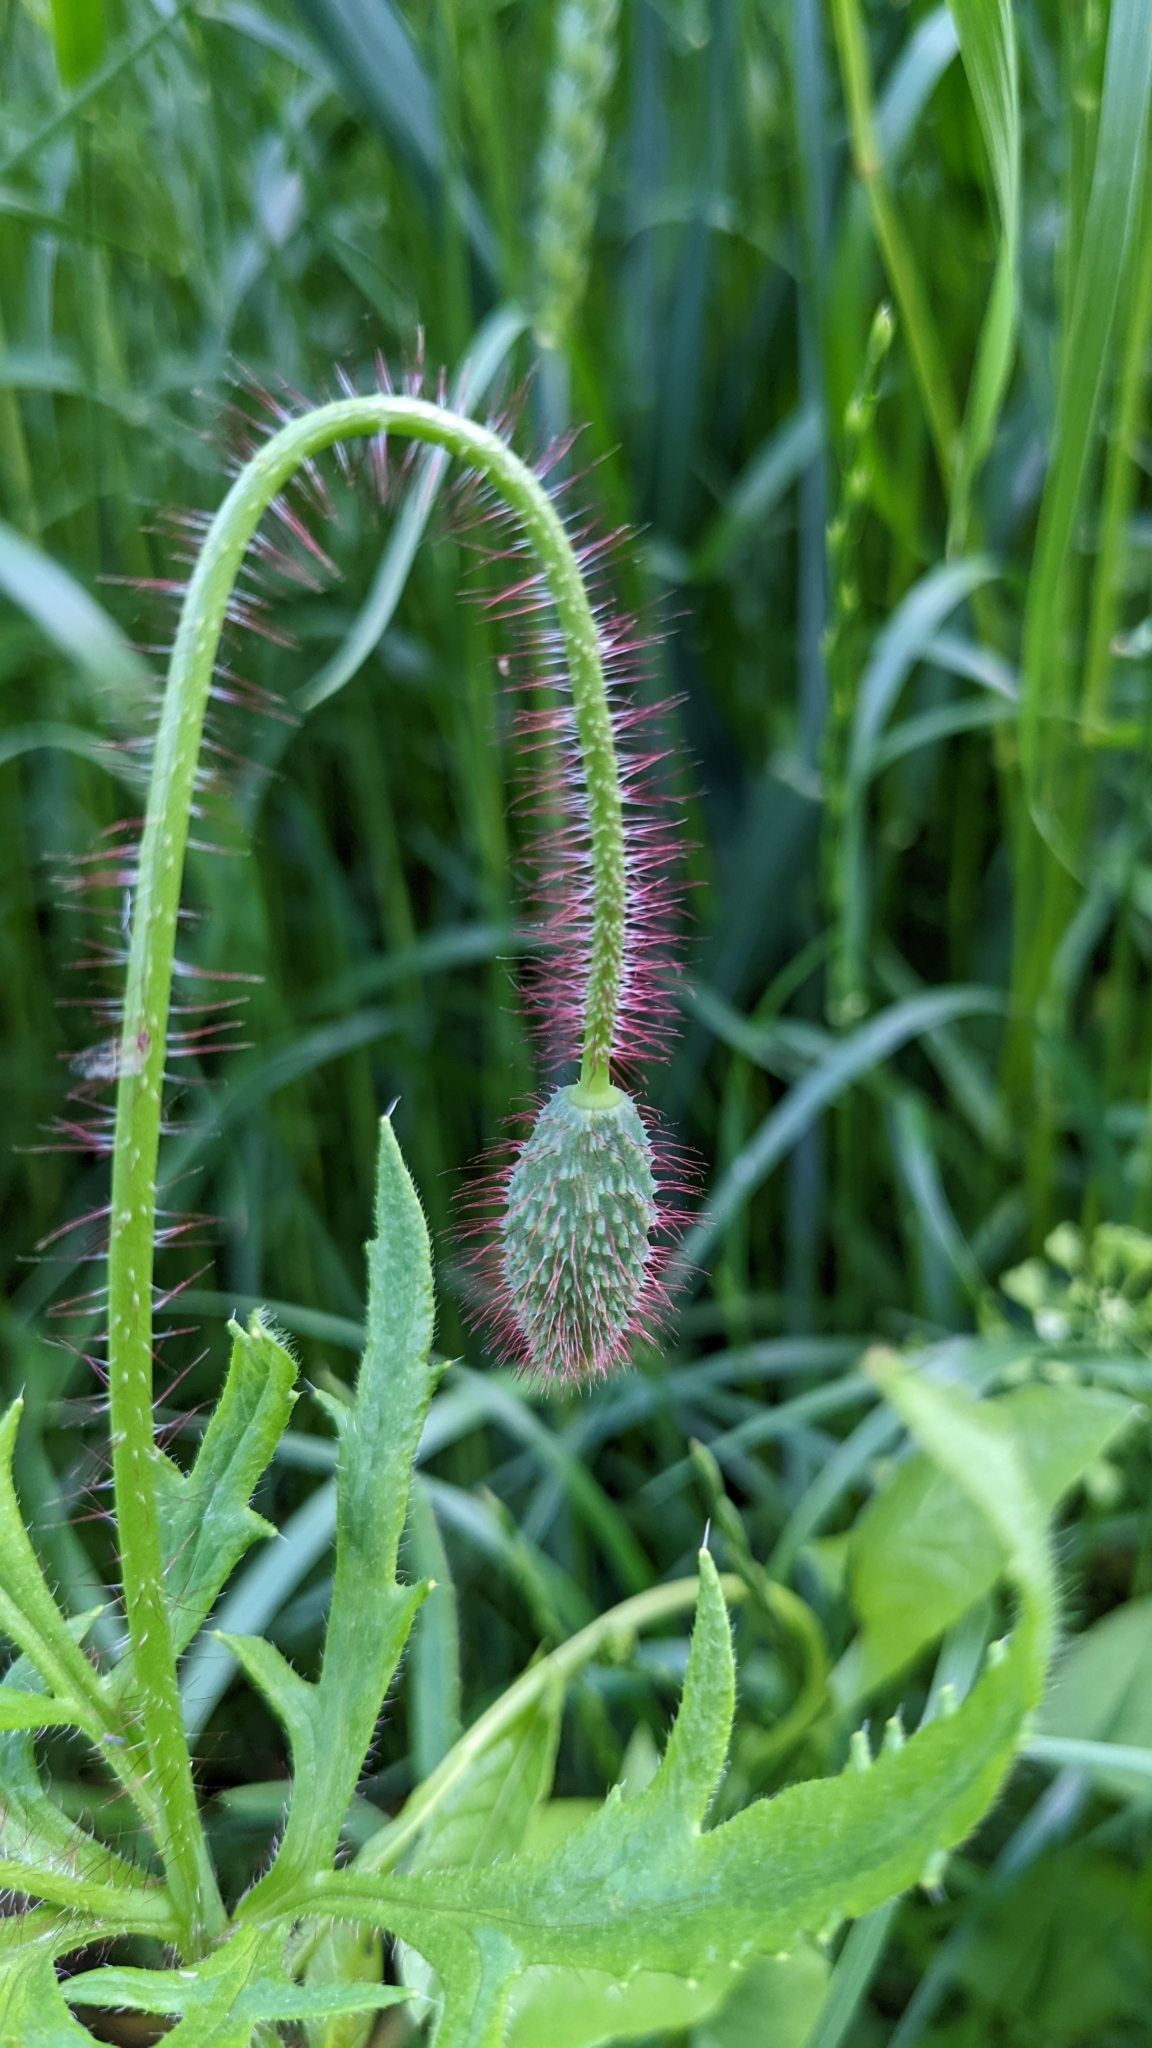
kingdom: Plantae
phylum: Tracheophyta
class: Magnoliopsida
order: Ranunculales
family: Papaveraceae
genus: Papaver
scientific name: Papaver rhoeas
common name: Corn poppy
